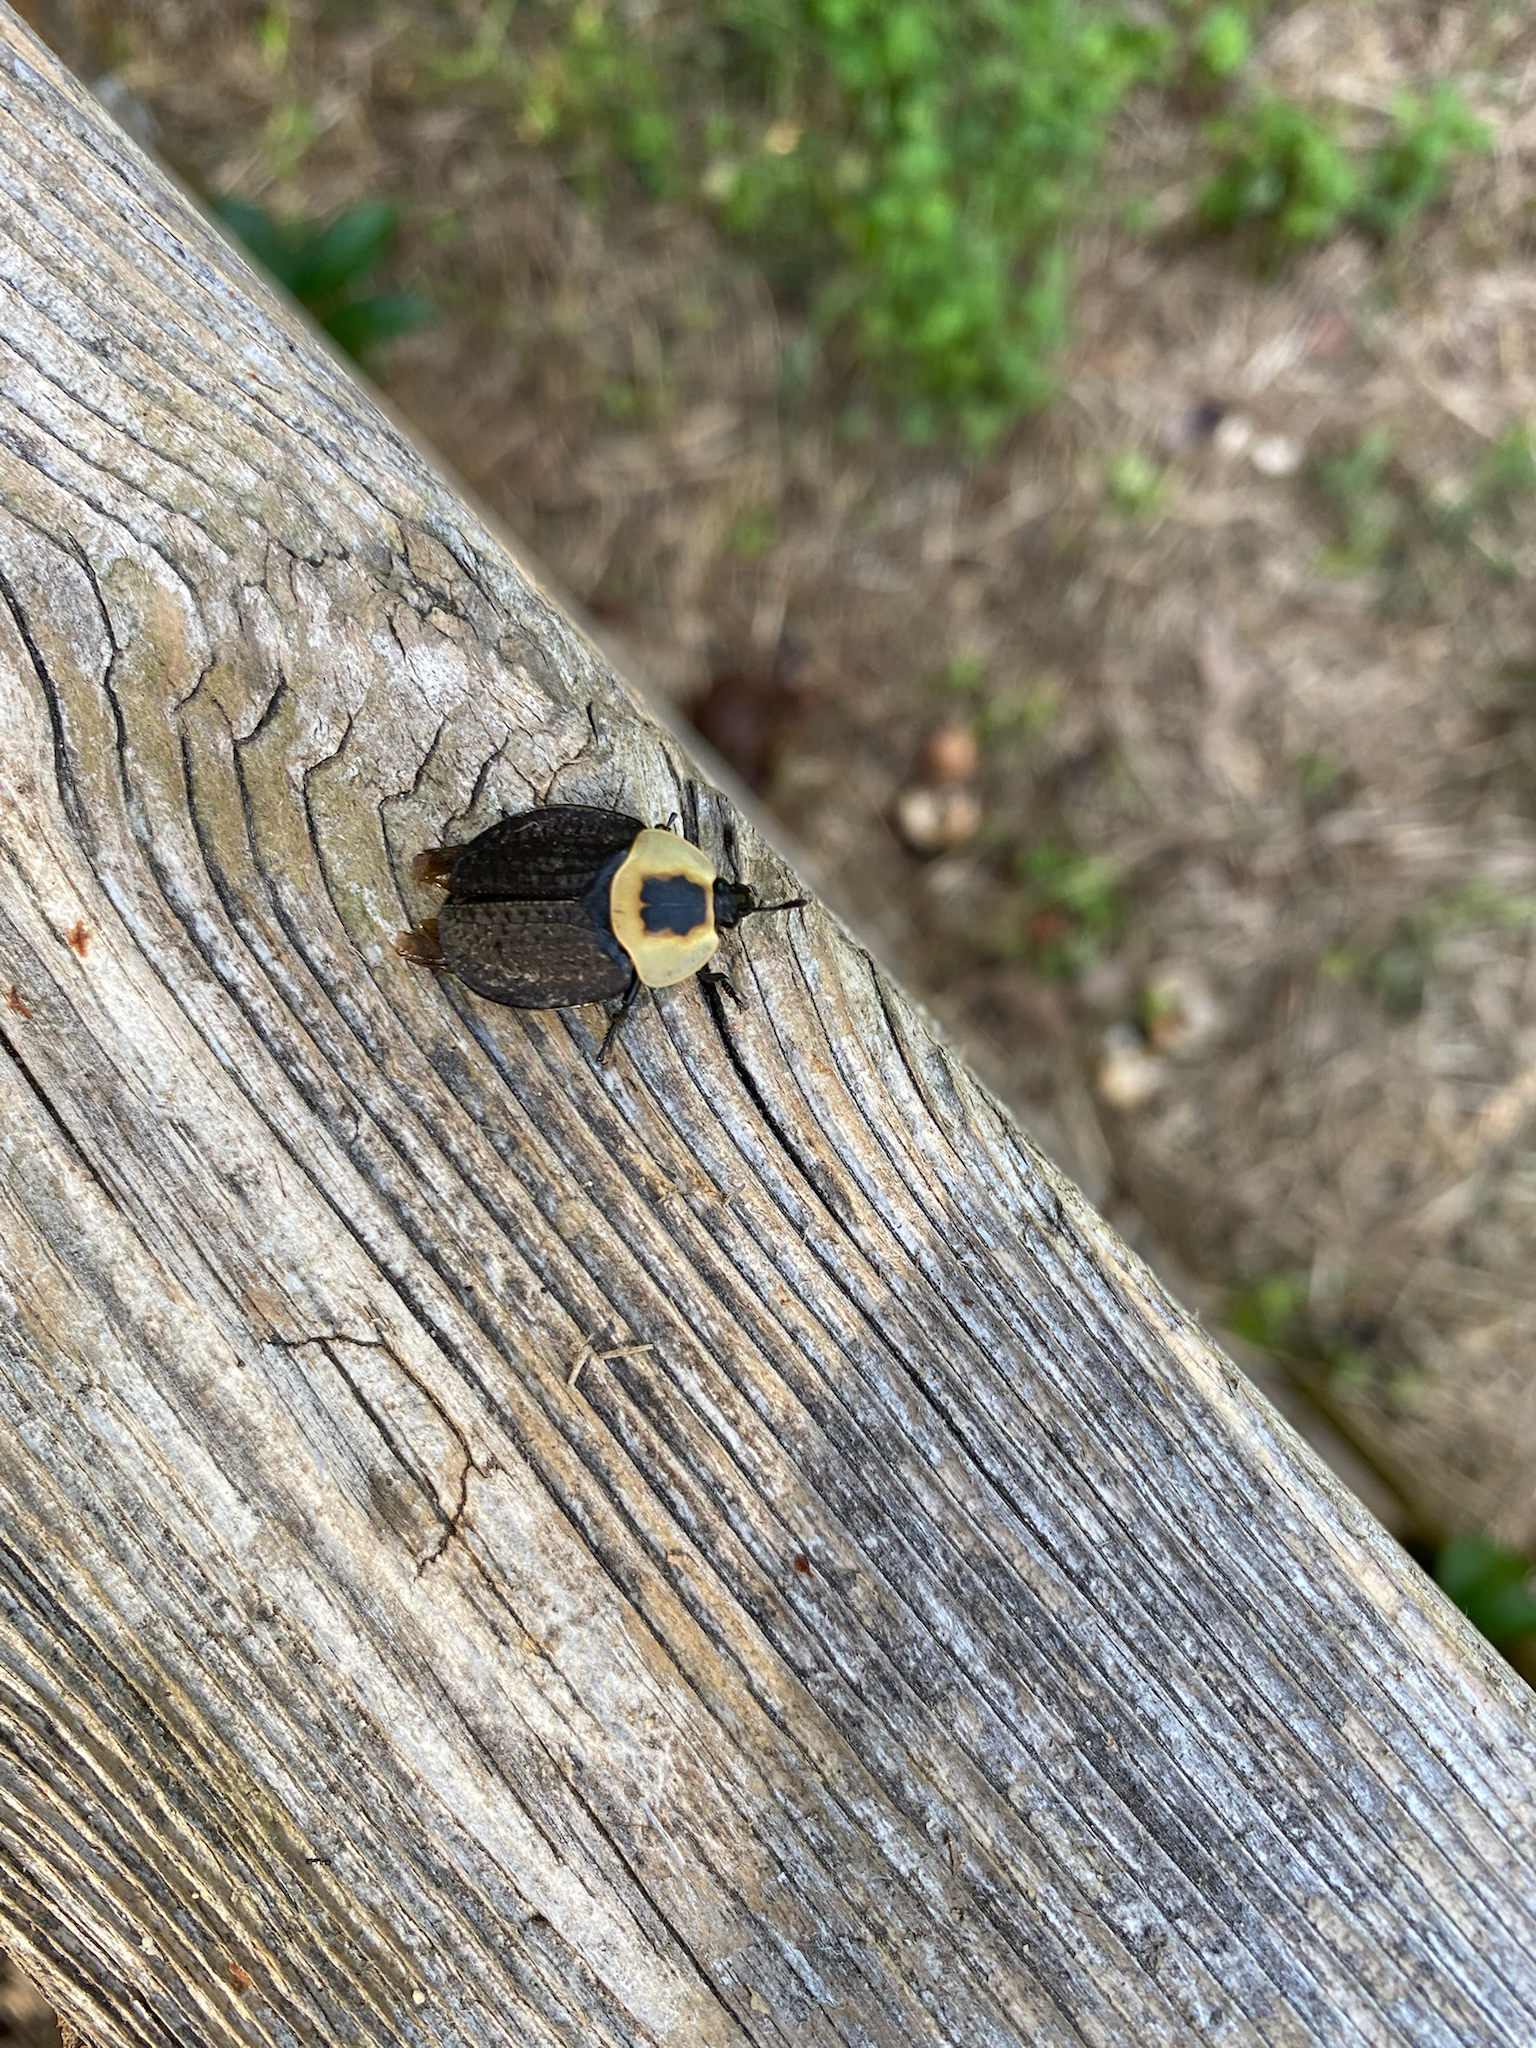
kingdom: Animalia
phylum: Arthropoda
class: Insecta
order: Coleoptera
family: Staphylinidae
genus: Necrophila
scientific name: Necrophila americana
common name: American carrion beetle
